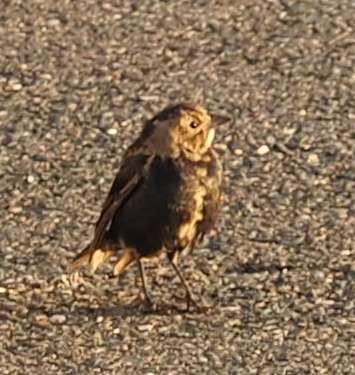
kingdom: Animalia
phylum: Chordata
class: Aves
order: Passeriformes
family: Icteridae
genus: Molothrus
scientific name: Molothrus ater
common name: Brown-headed cowbird
